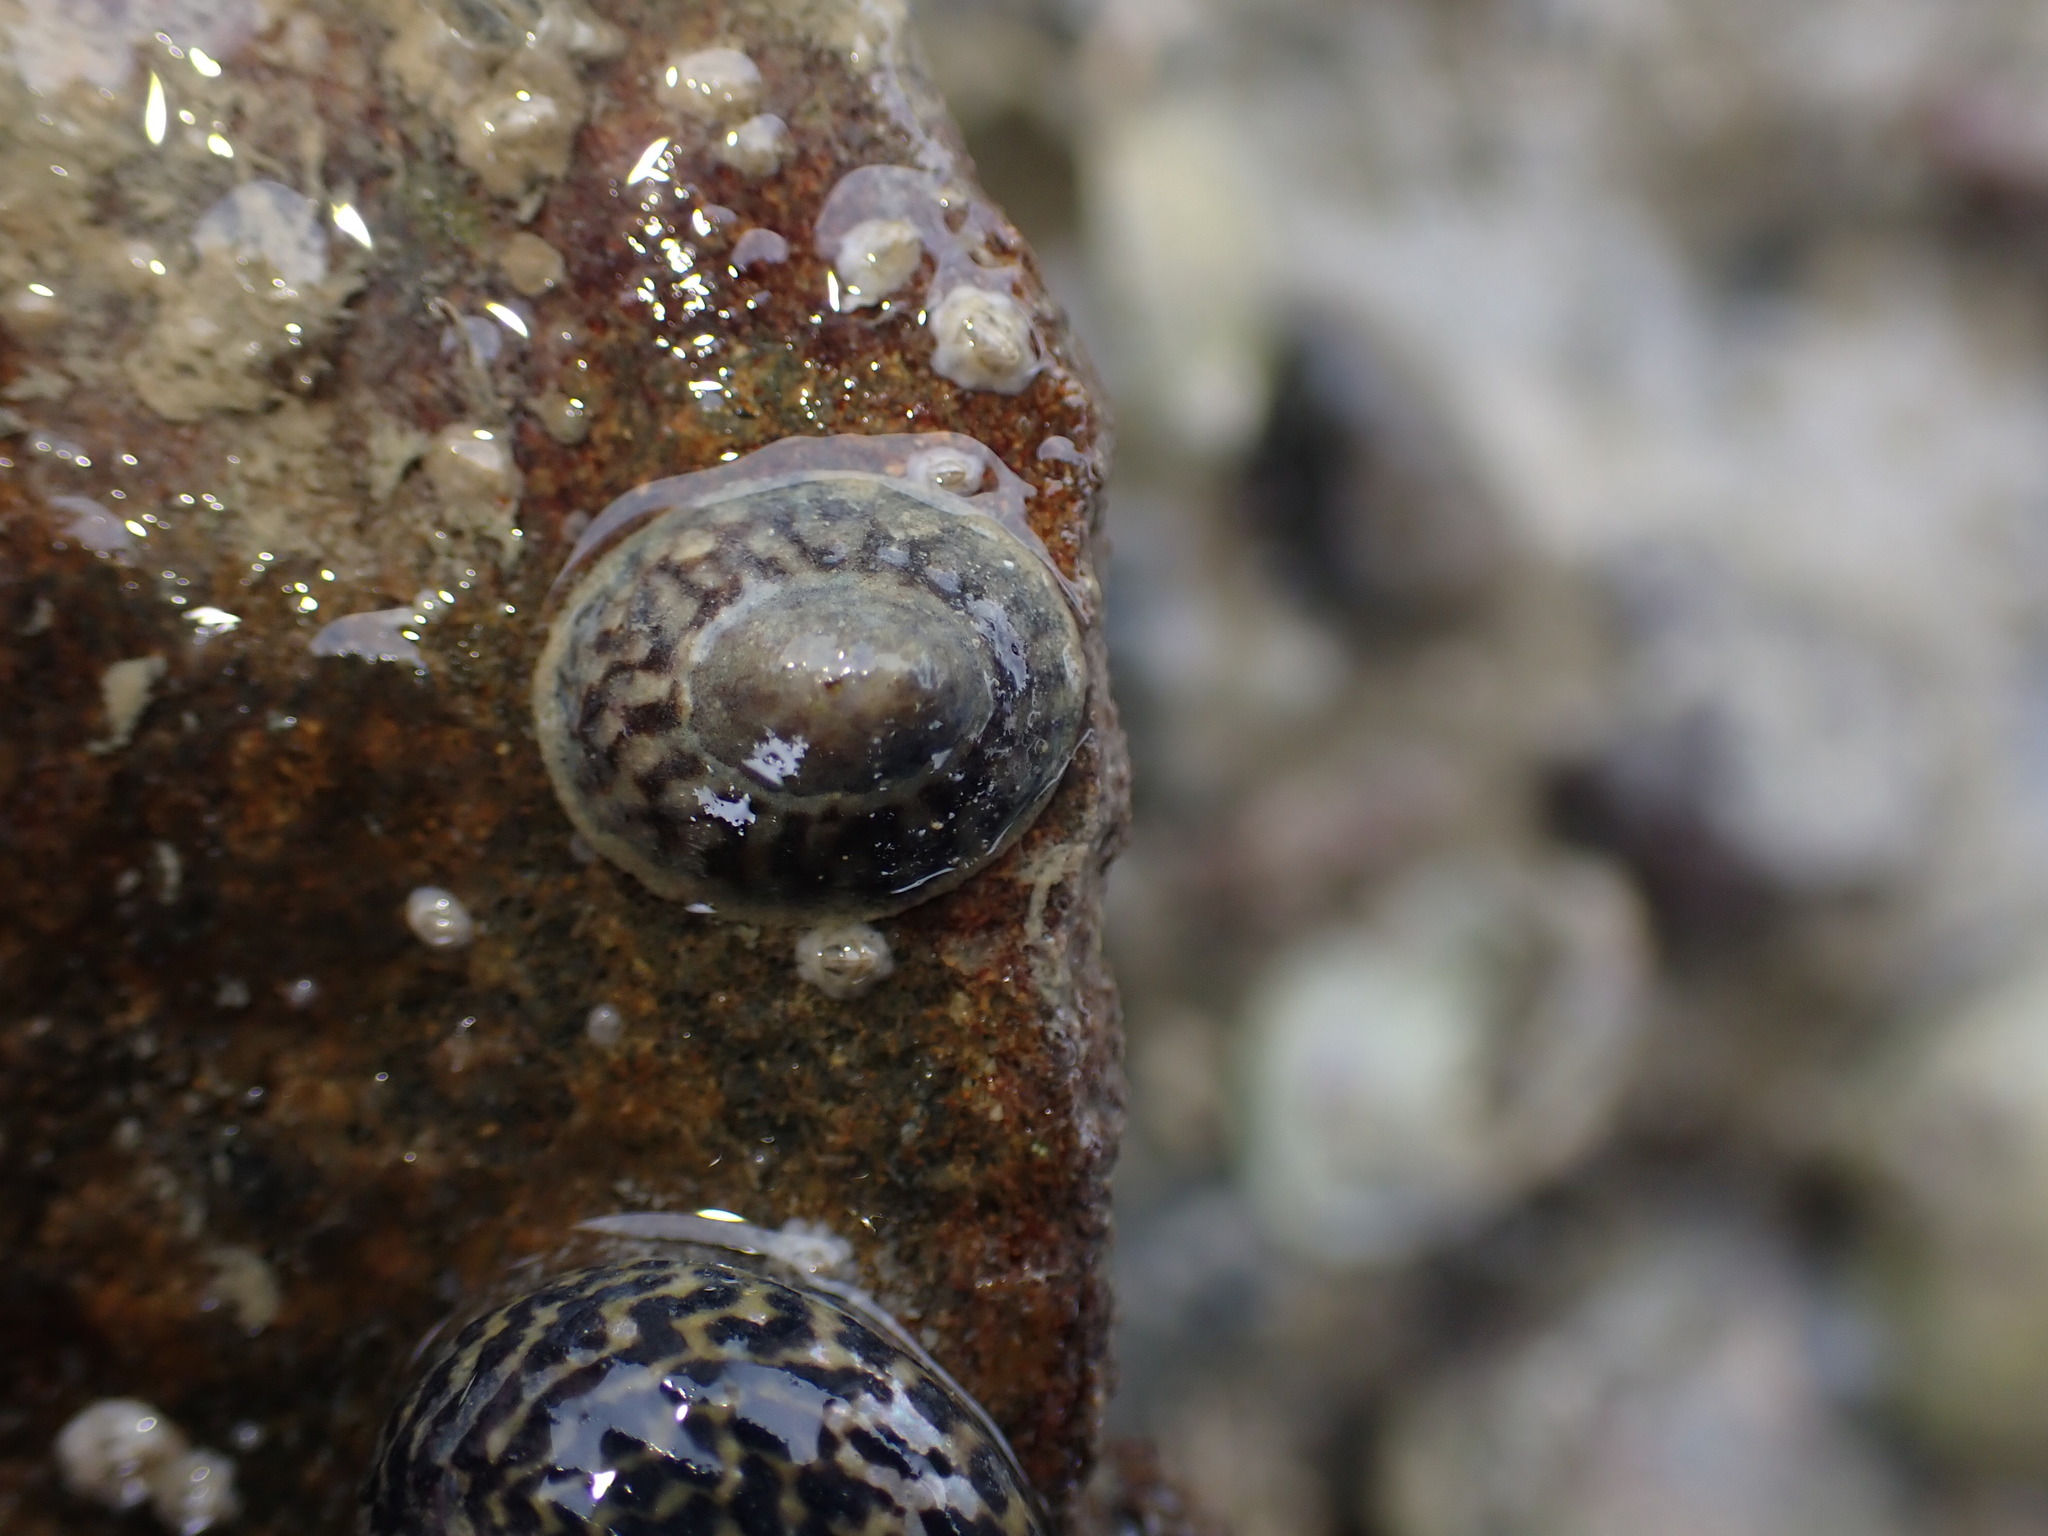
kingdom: Animalia
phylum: Mollusca
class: Gastropoda
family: Lottiidae
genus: Notoacmea
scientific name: Notoacmea potae
